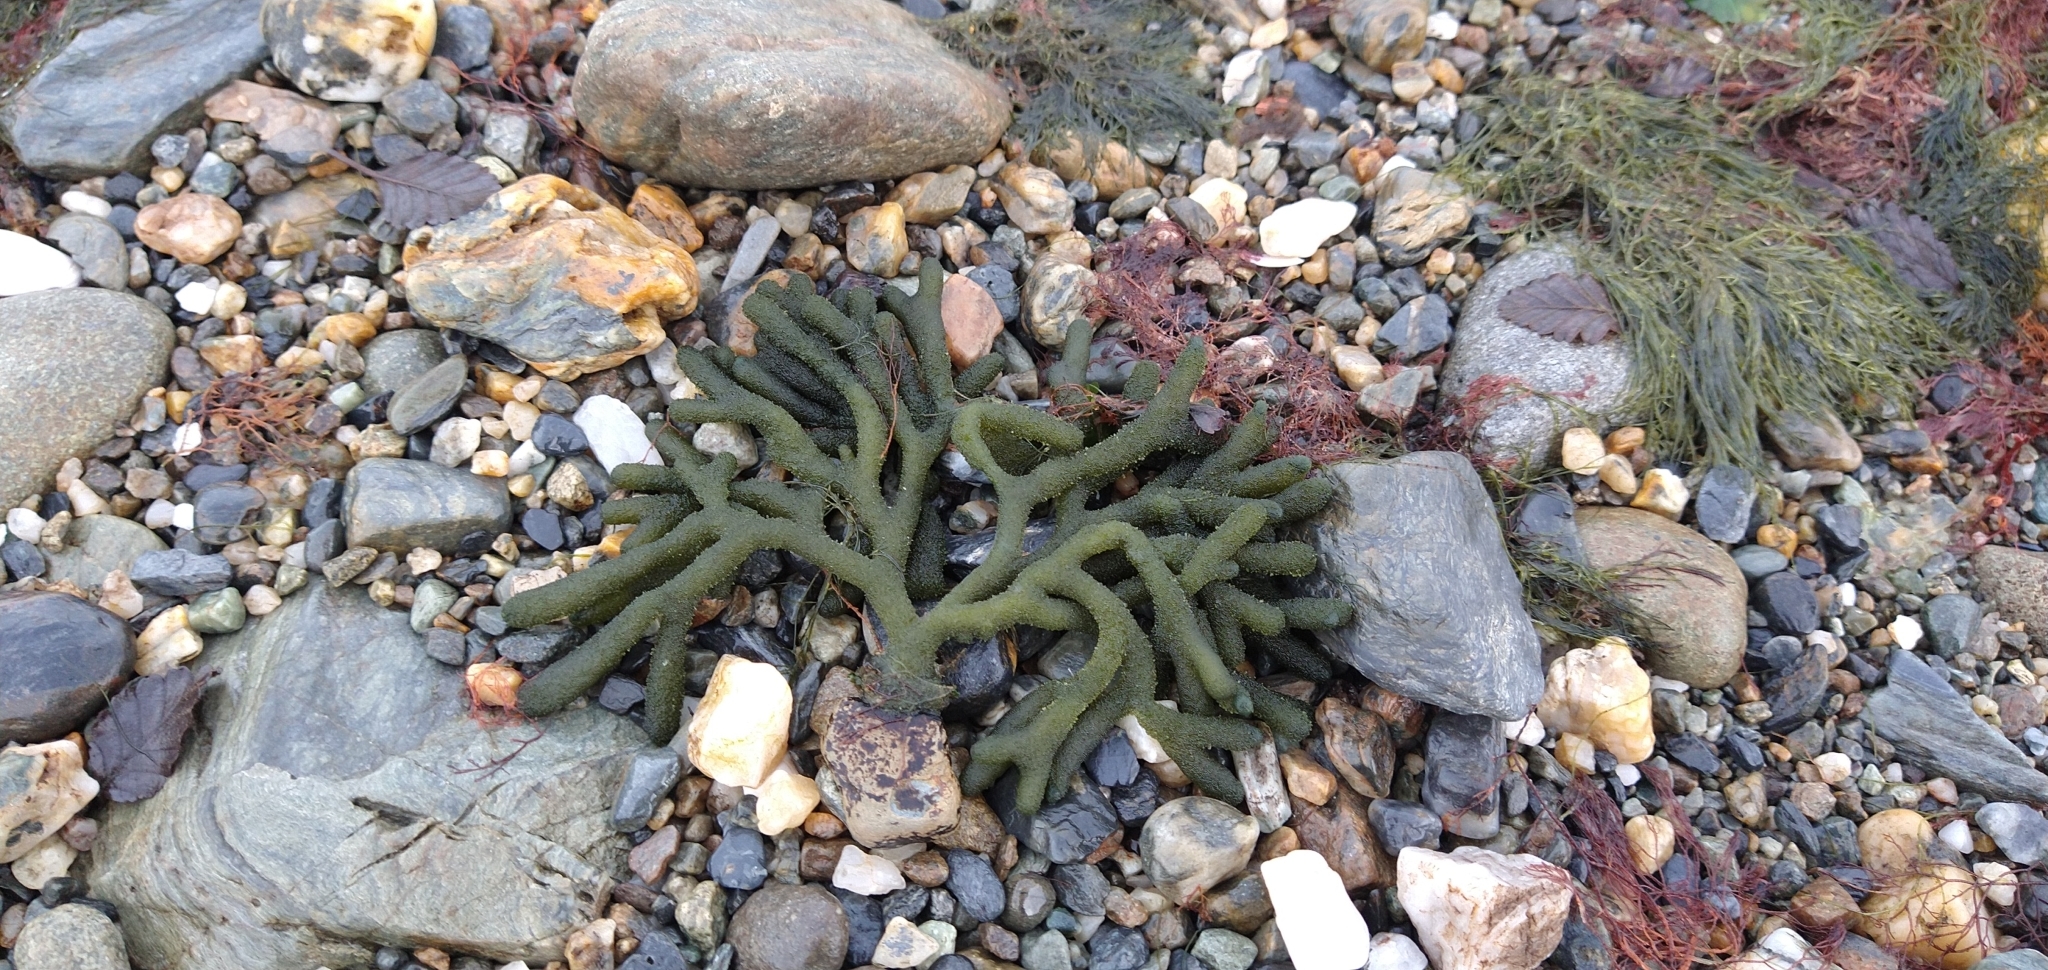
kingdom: Plantae
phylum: Chlorophyta
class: Ulvophyceae
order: Bryopsidales
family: Codiaceae
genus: Codium
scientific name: Codium
